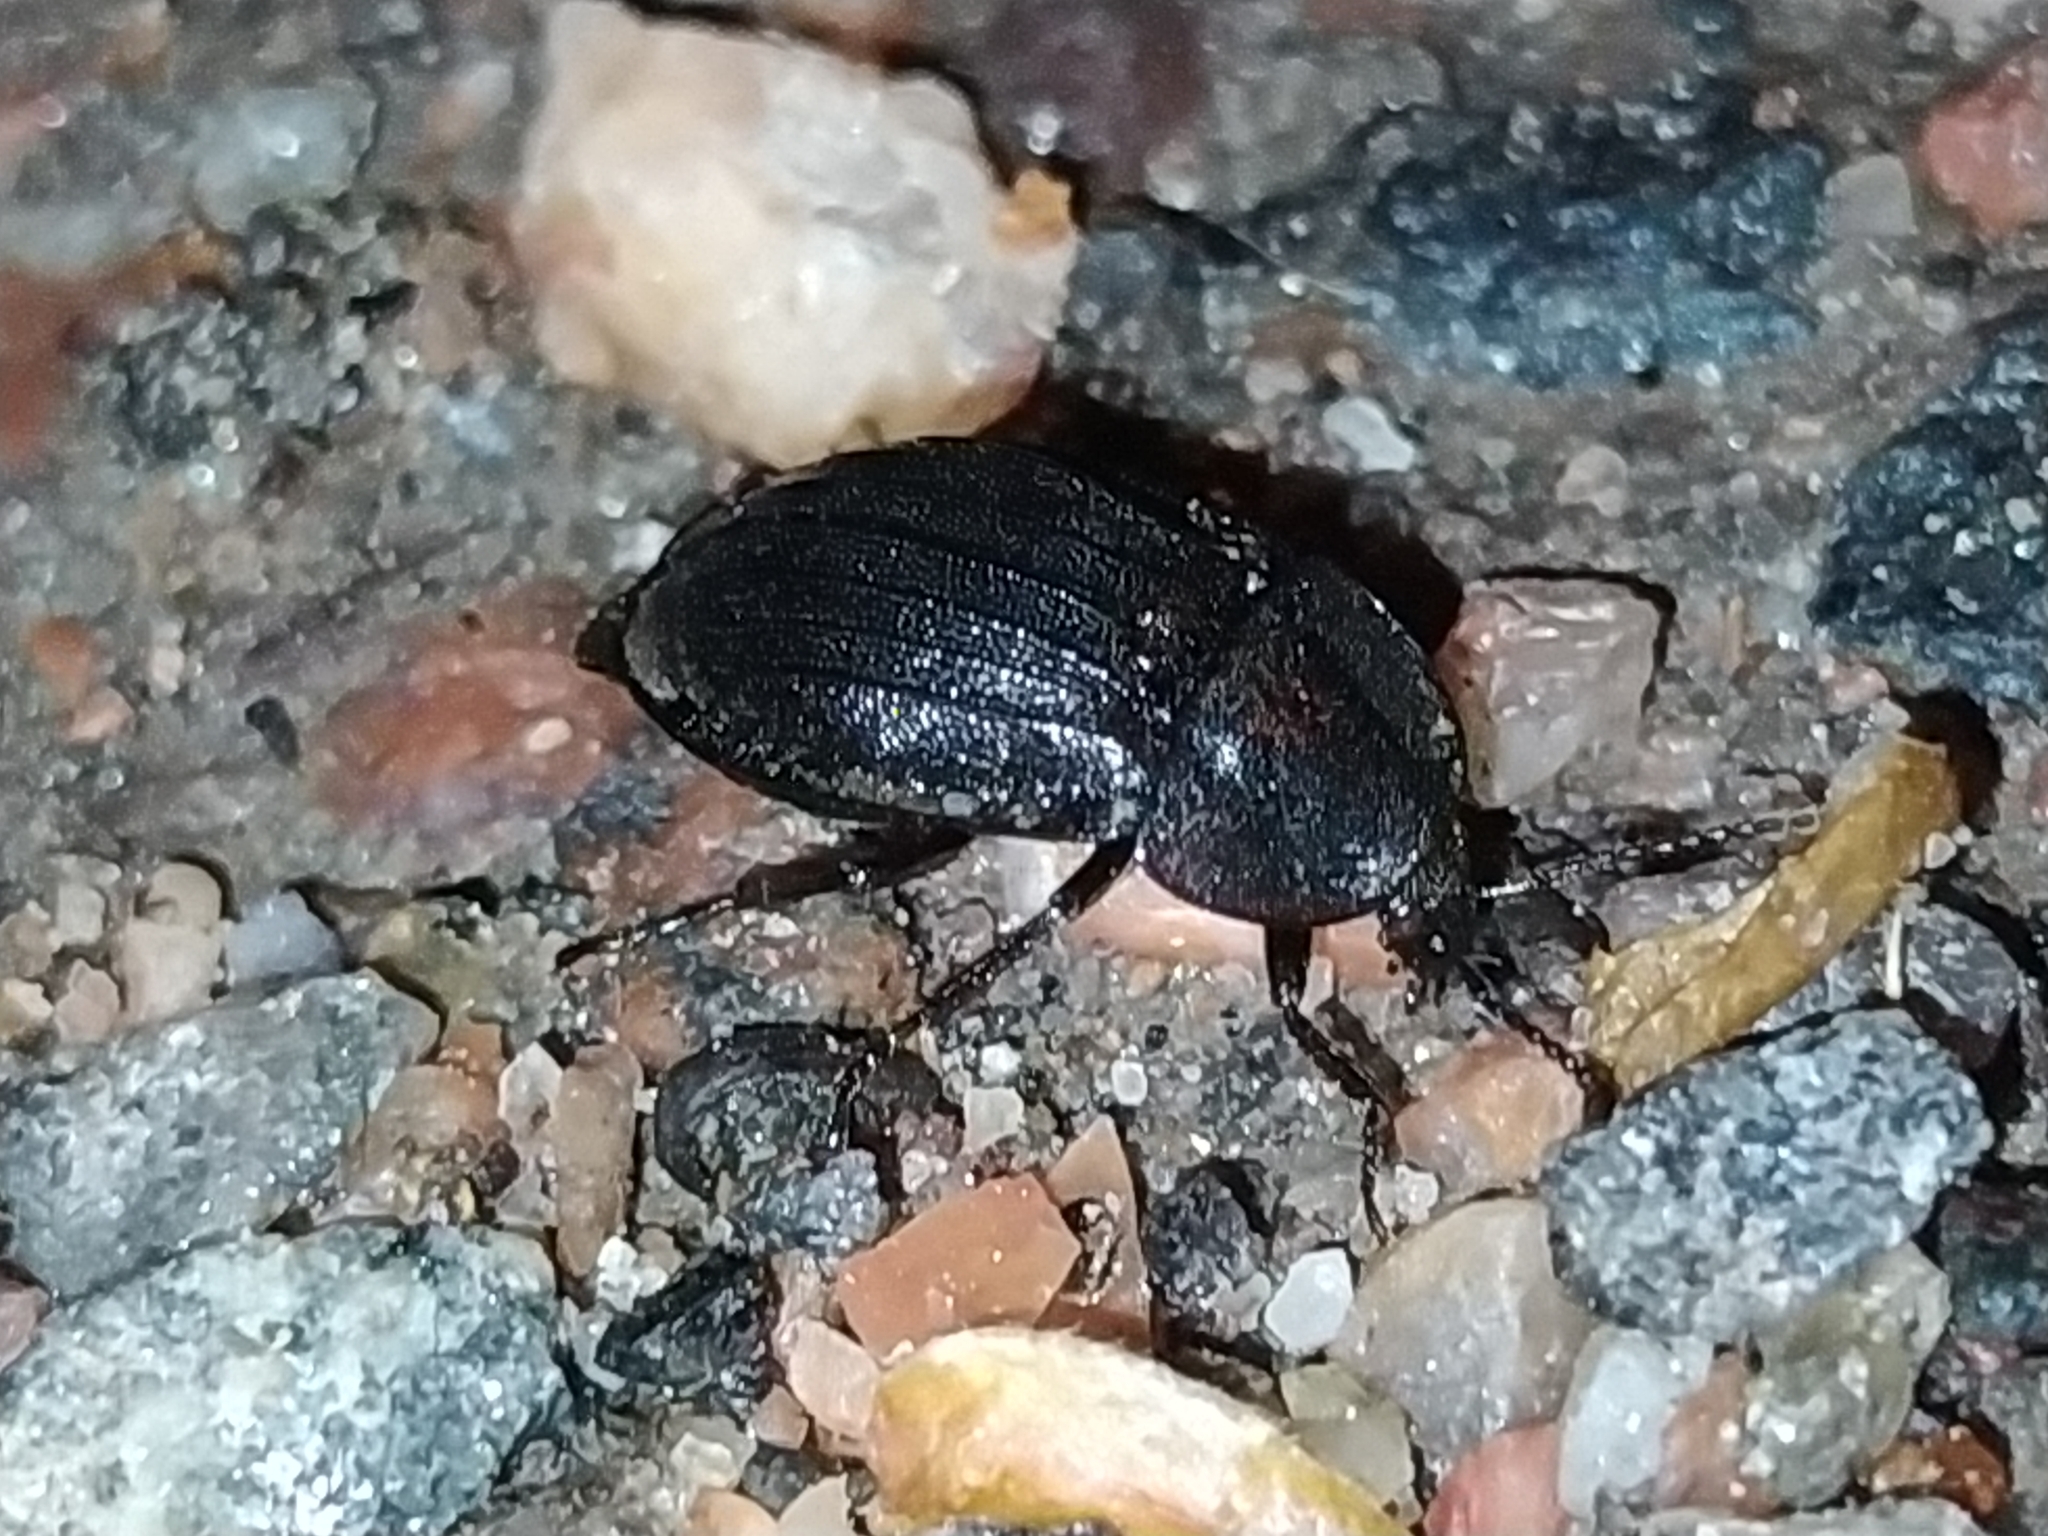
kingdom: Animalia
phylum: Arthropoda
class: Insecta
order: Coleoptera
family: Staphylinidae
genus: Silpha
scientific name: Silpha atrata
